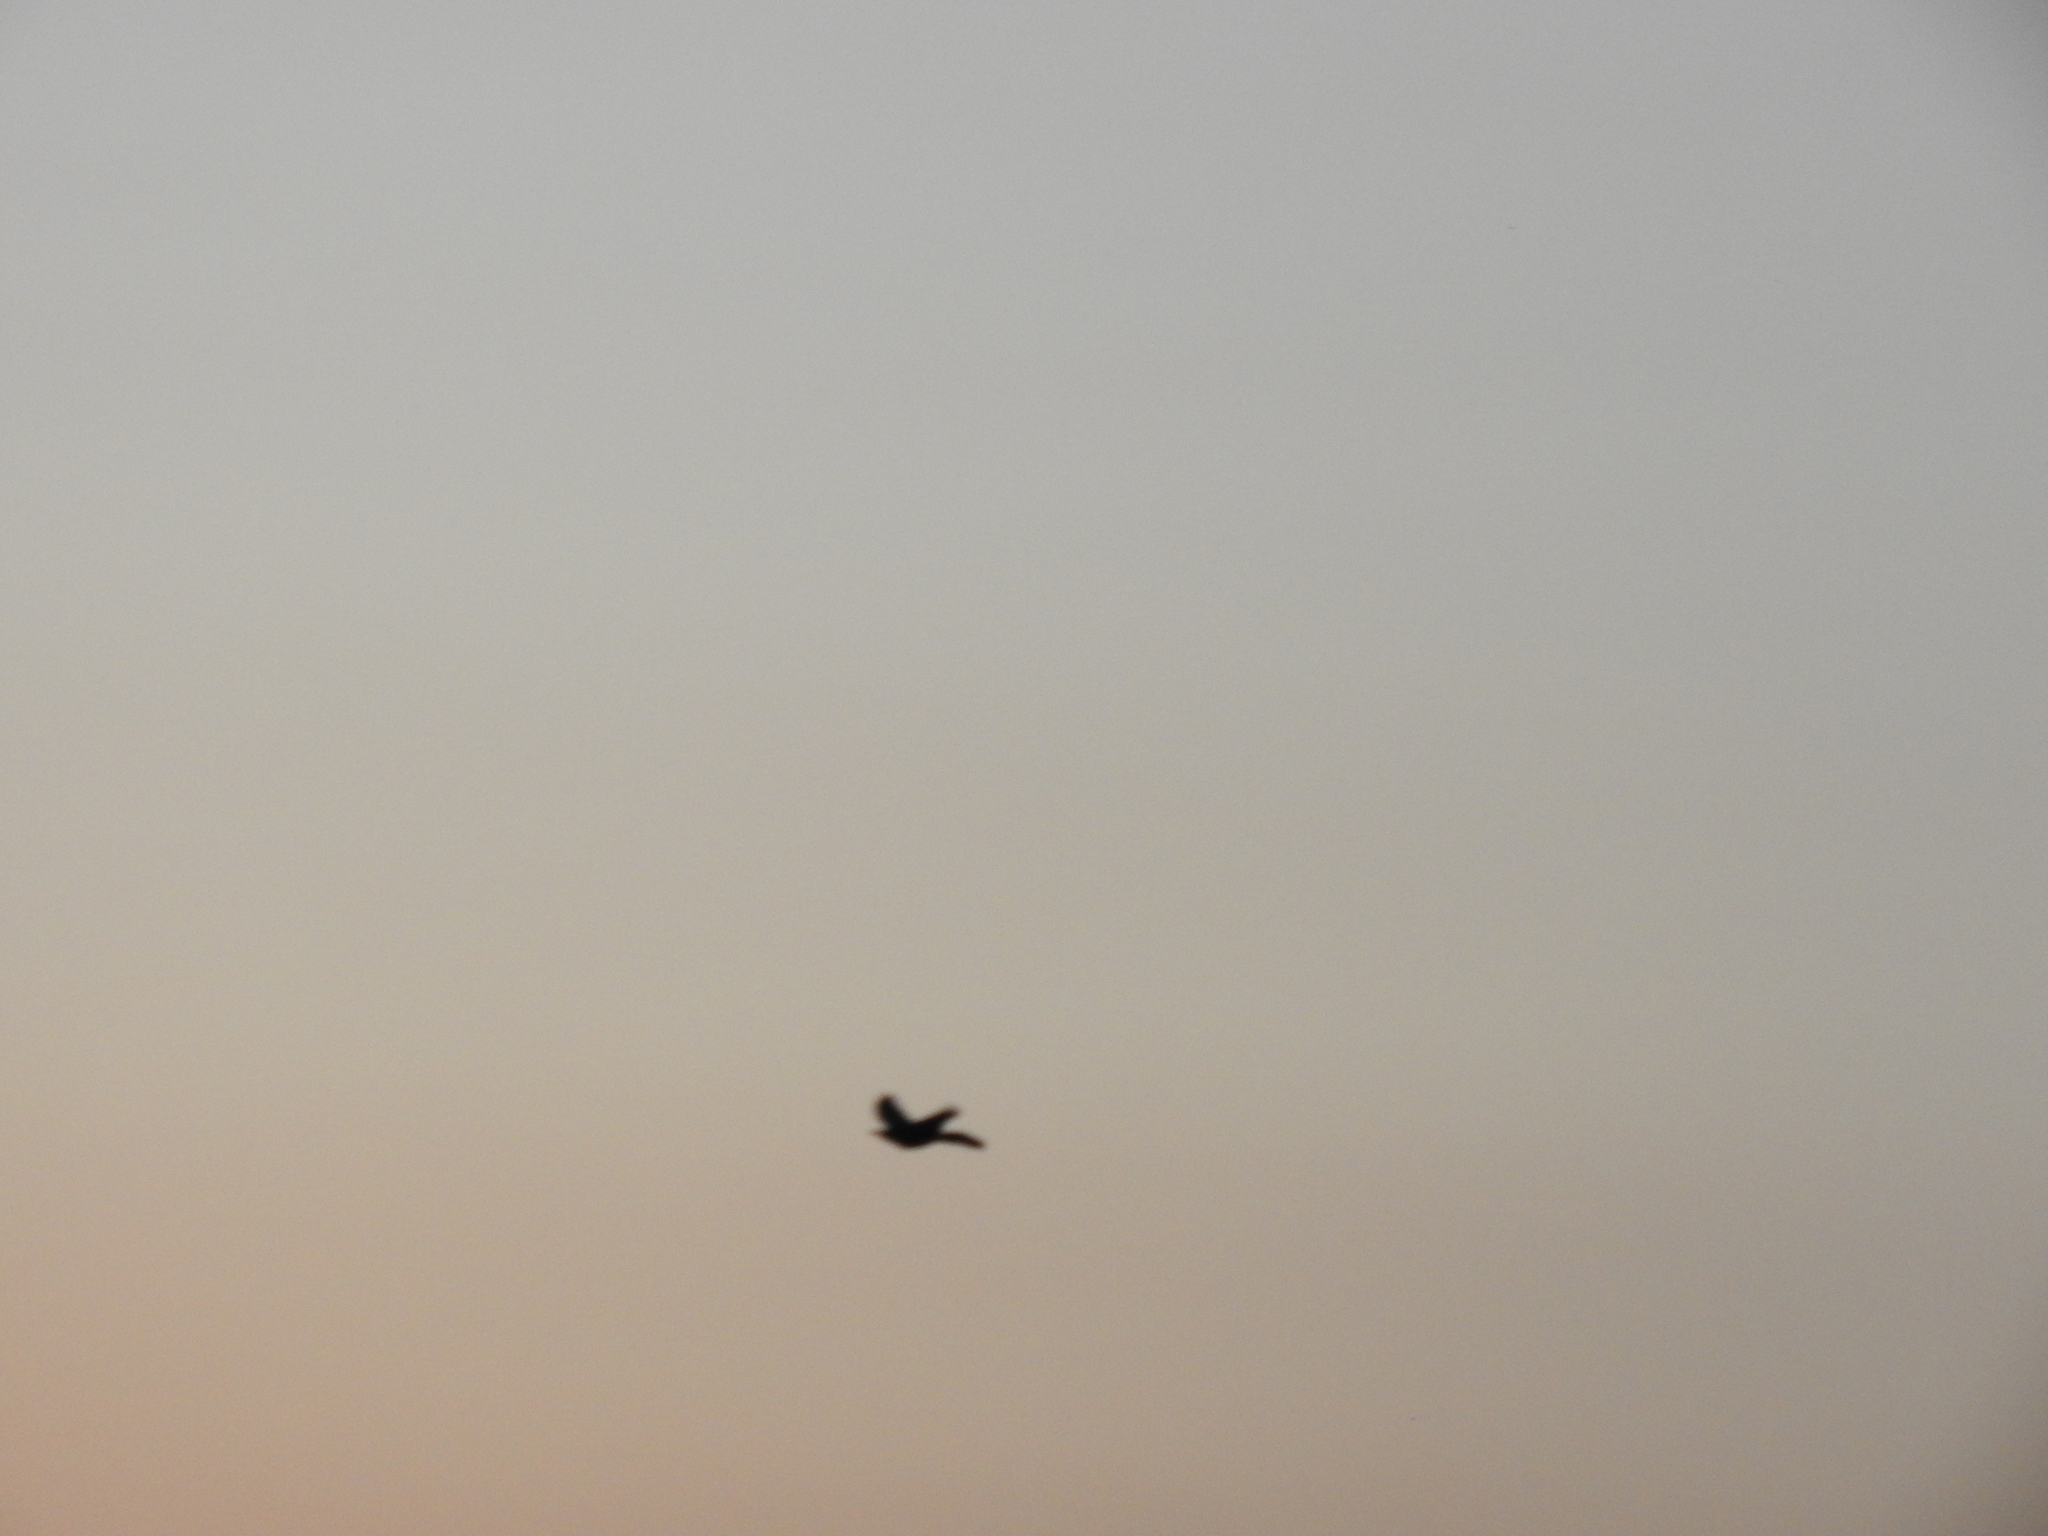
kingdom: Animalia
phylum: Chordata
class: Aves
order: Passeriformes
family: Icteridae
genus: Quiscalus
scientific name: Quiscalus mexicanus
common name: Great-tailed grackle
